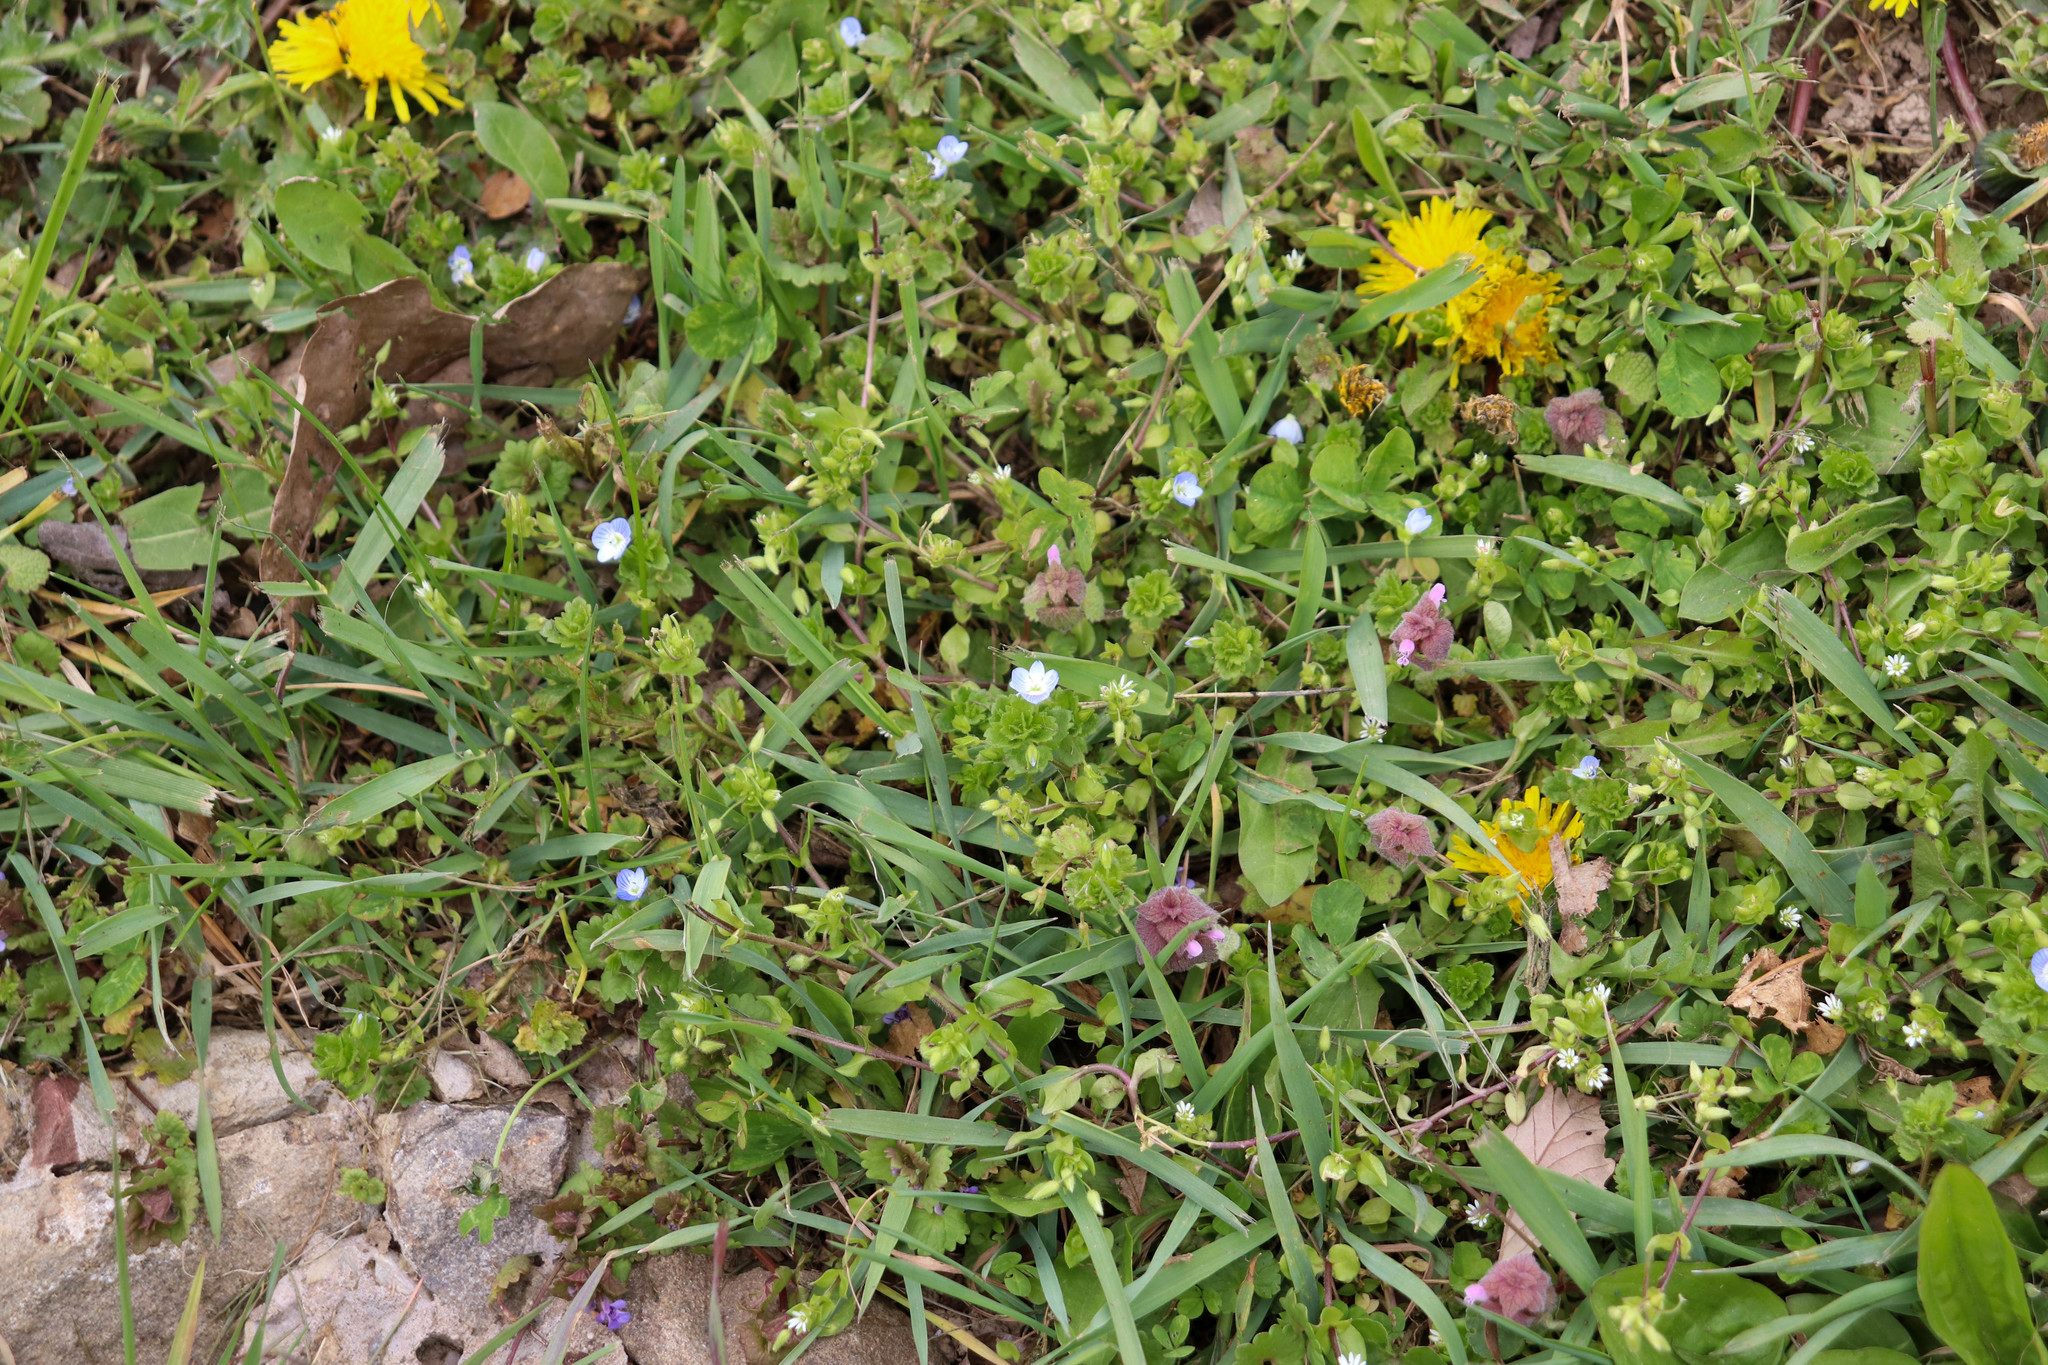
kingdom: Plantae
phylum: Tracheophyta
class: Magnoliopsida
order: Lamiales
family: Plantaginaceae
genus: Veronica
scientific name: Veronica persica
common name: Common field-speedwell
